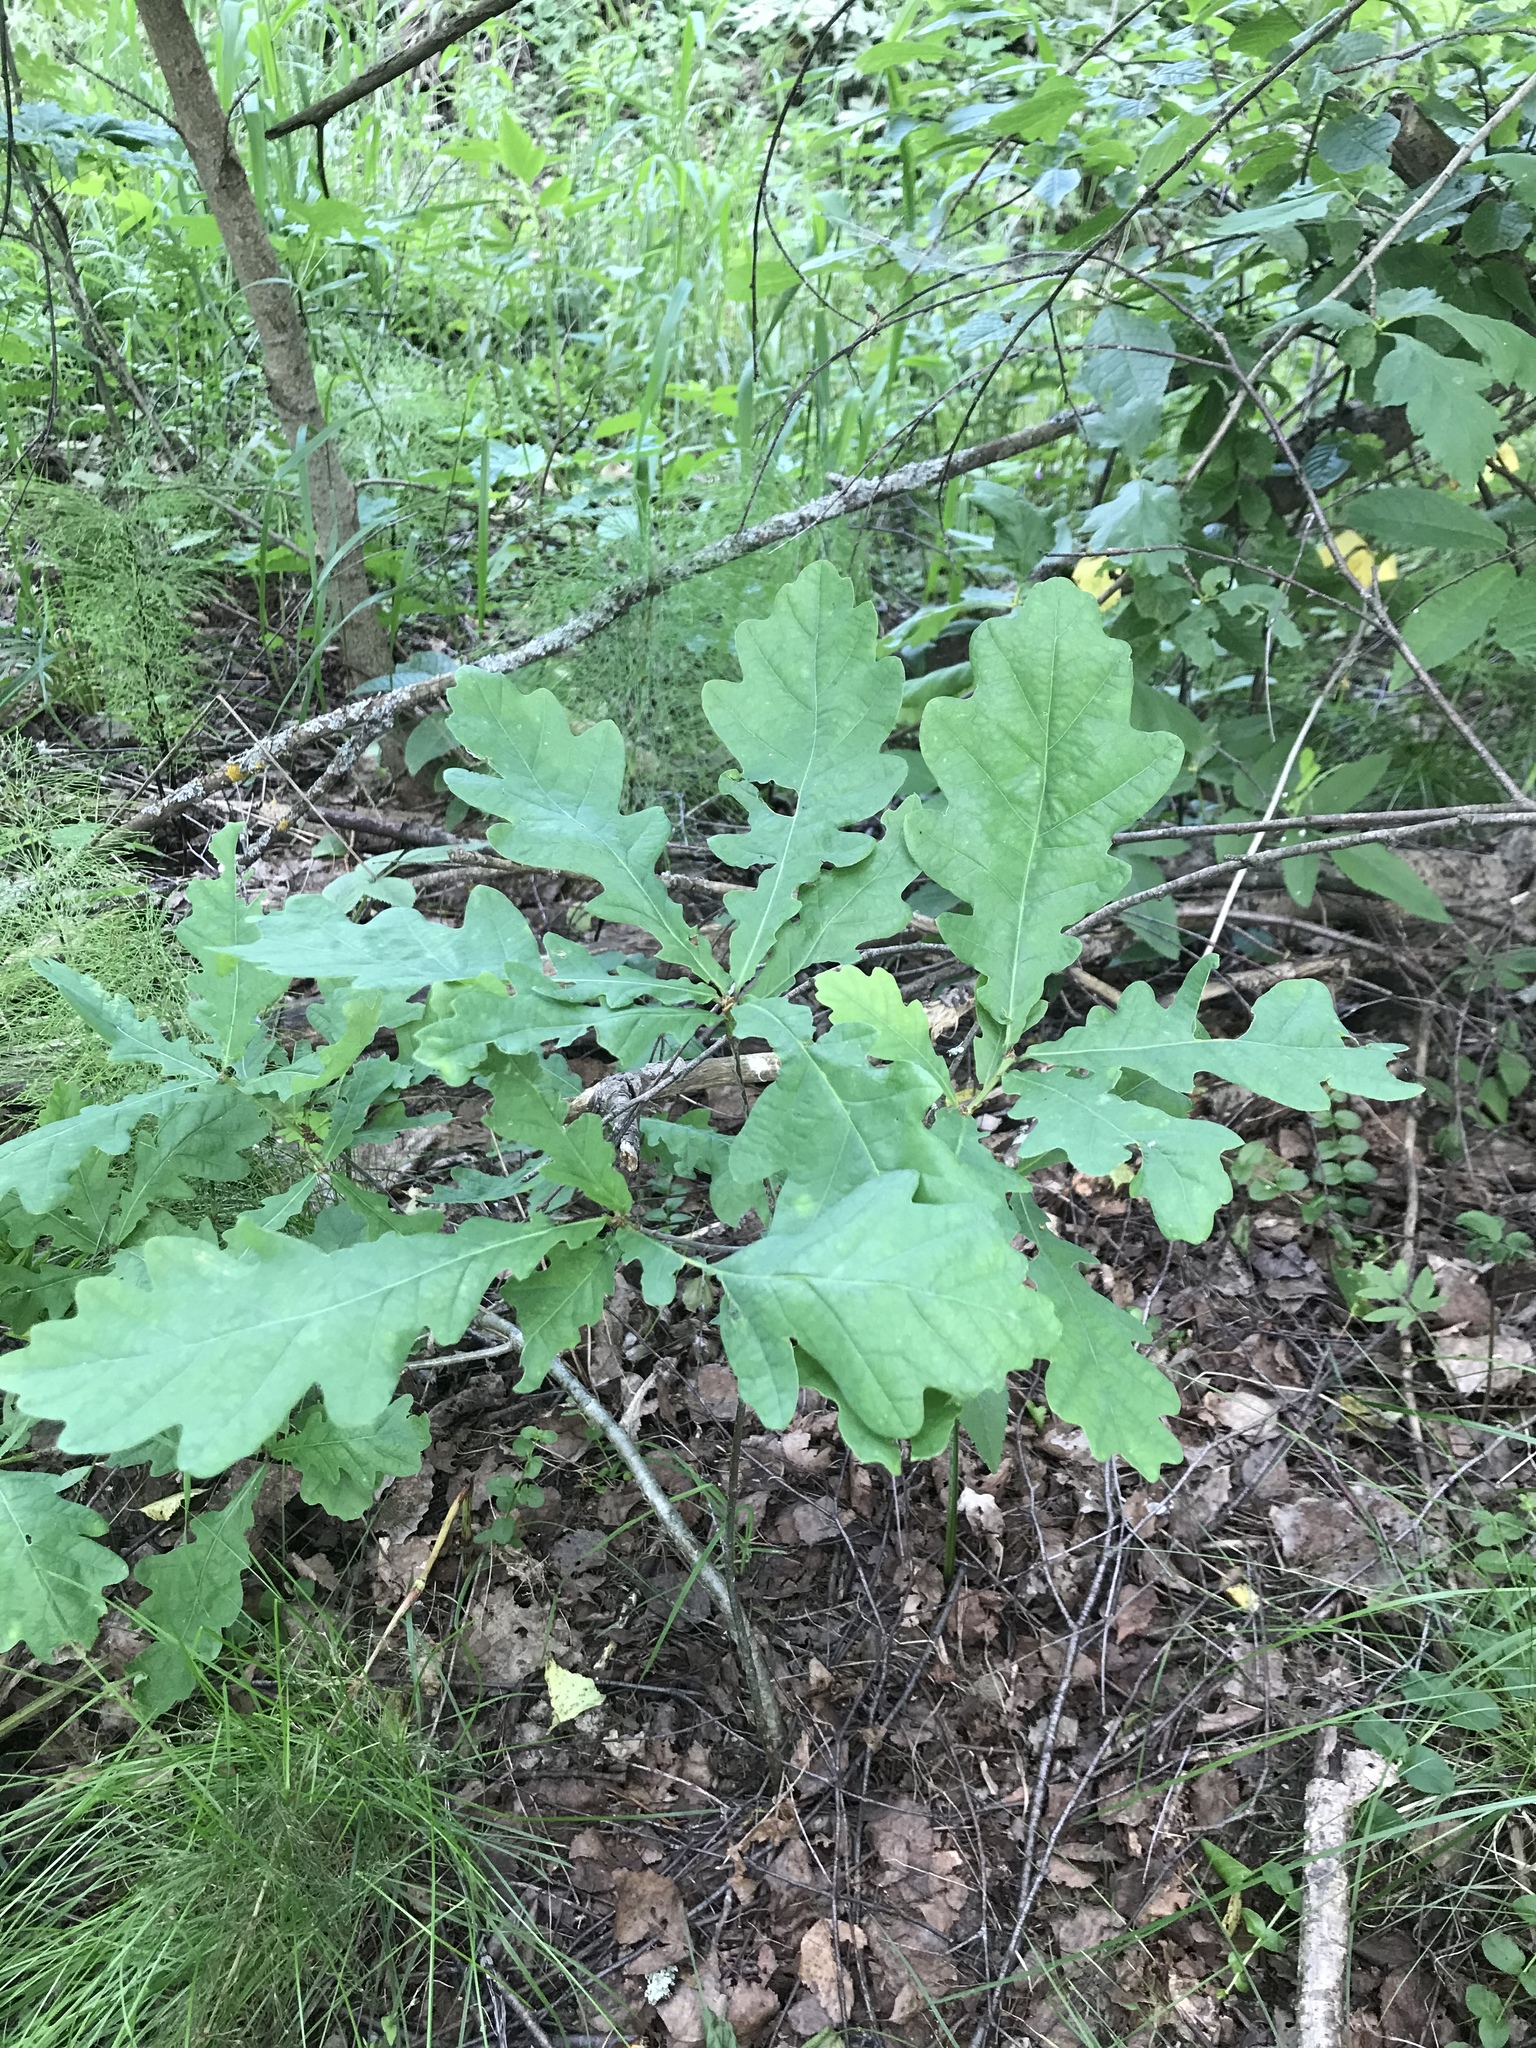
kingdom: Plantae
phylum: Tracheophyta
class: Magnoliopsida
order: Fagales
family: Fagaceae
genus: Quercus
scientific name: Quercus robur
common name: Pedunculate oak
